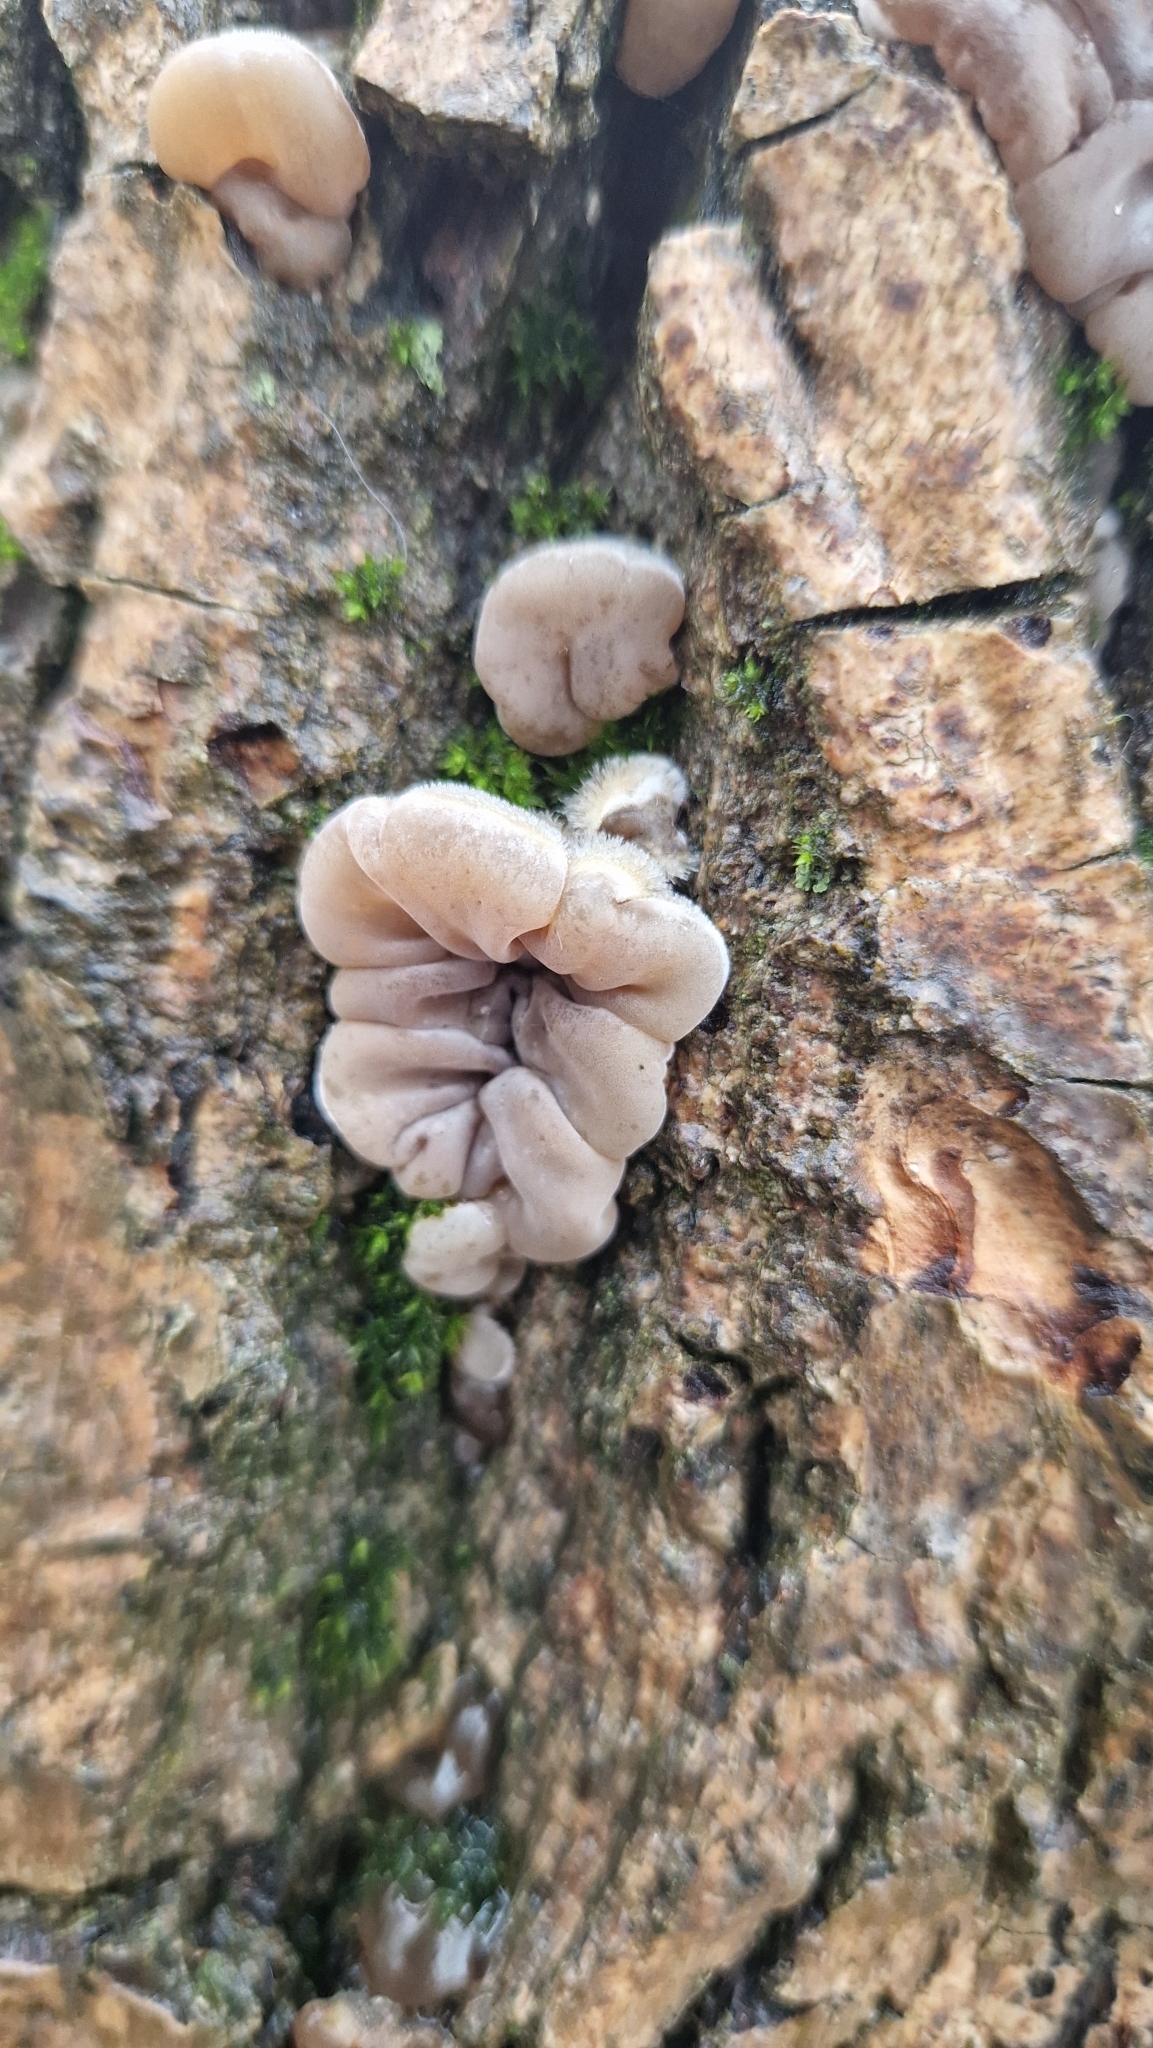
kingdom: Fungi
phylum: Basidiomycota
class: Agaricomycetes
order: Auriculariales
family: Auriculariaceae
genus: Auricularia
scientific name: Auricularia mesenterica
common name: Tripe fungus
